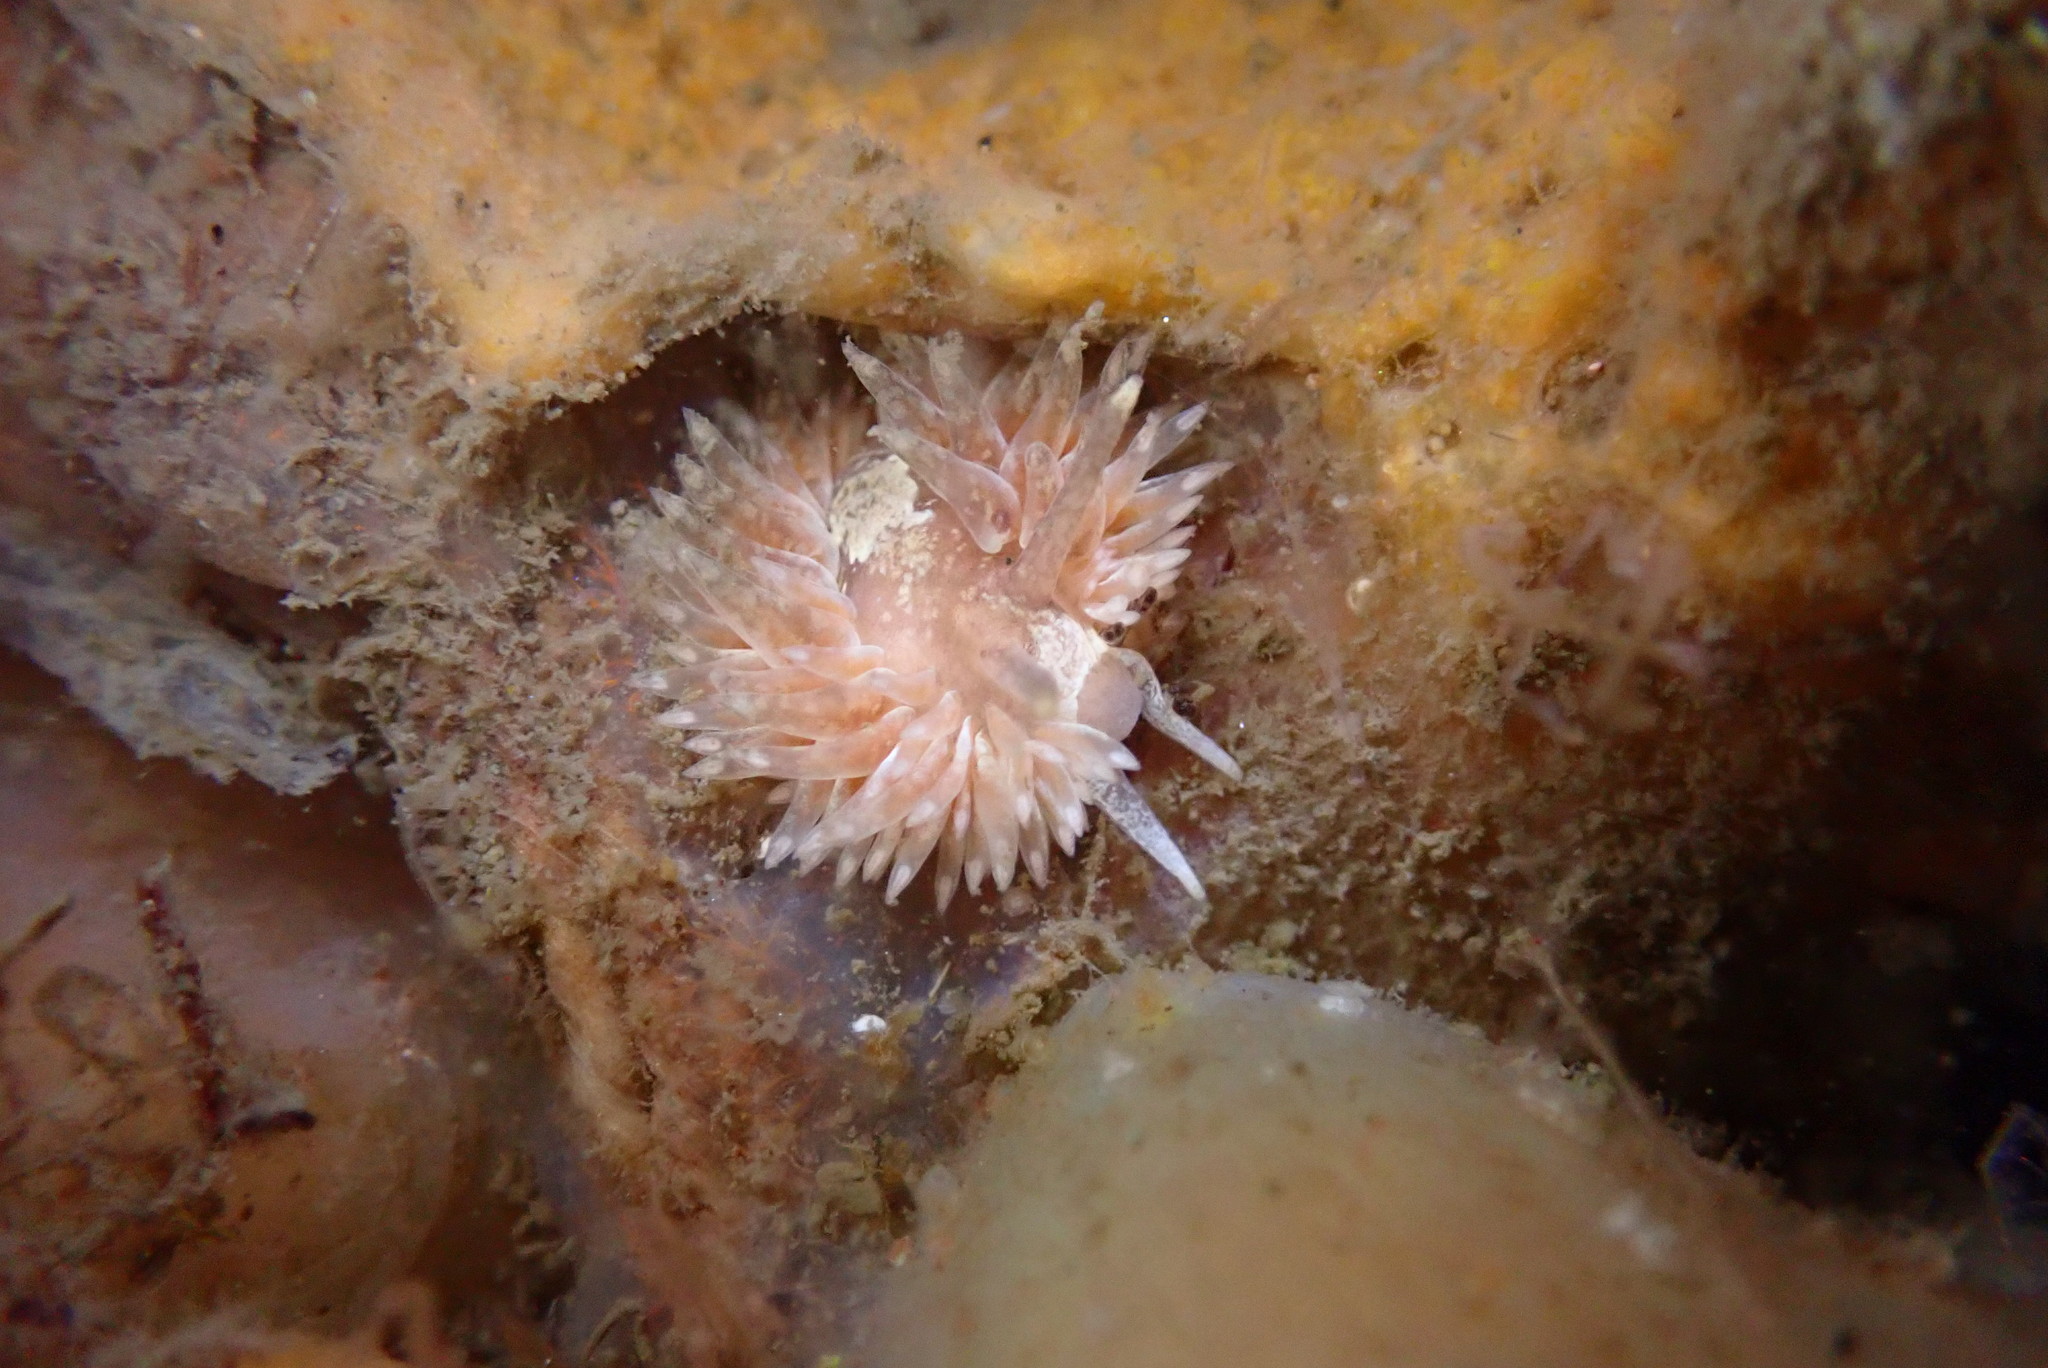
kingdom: Animalia
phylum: Mollusca
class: Gastropoda
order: Nudibranchia
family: Aeolidiidae
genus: Aeolidia
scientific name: Aeolidia loui
